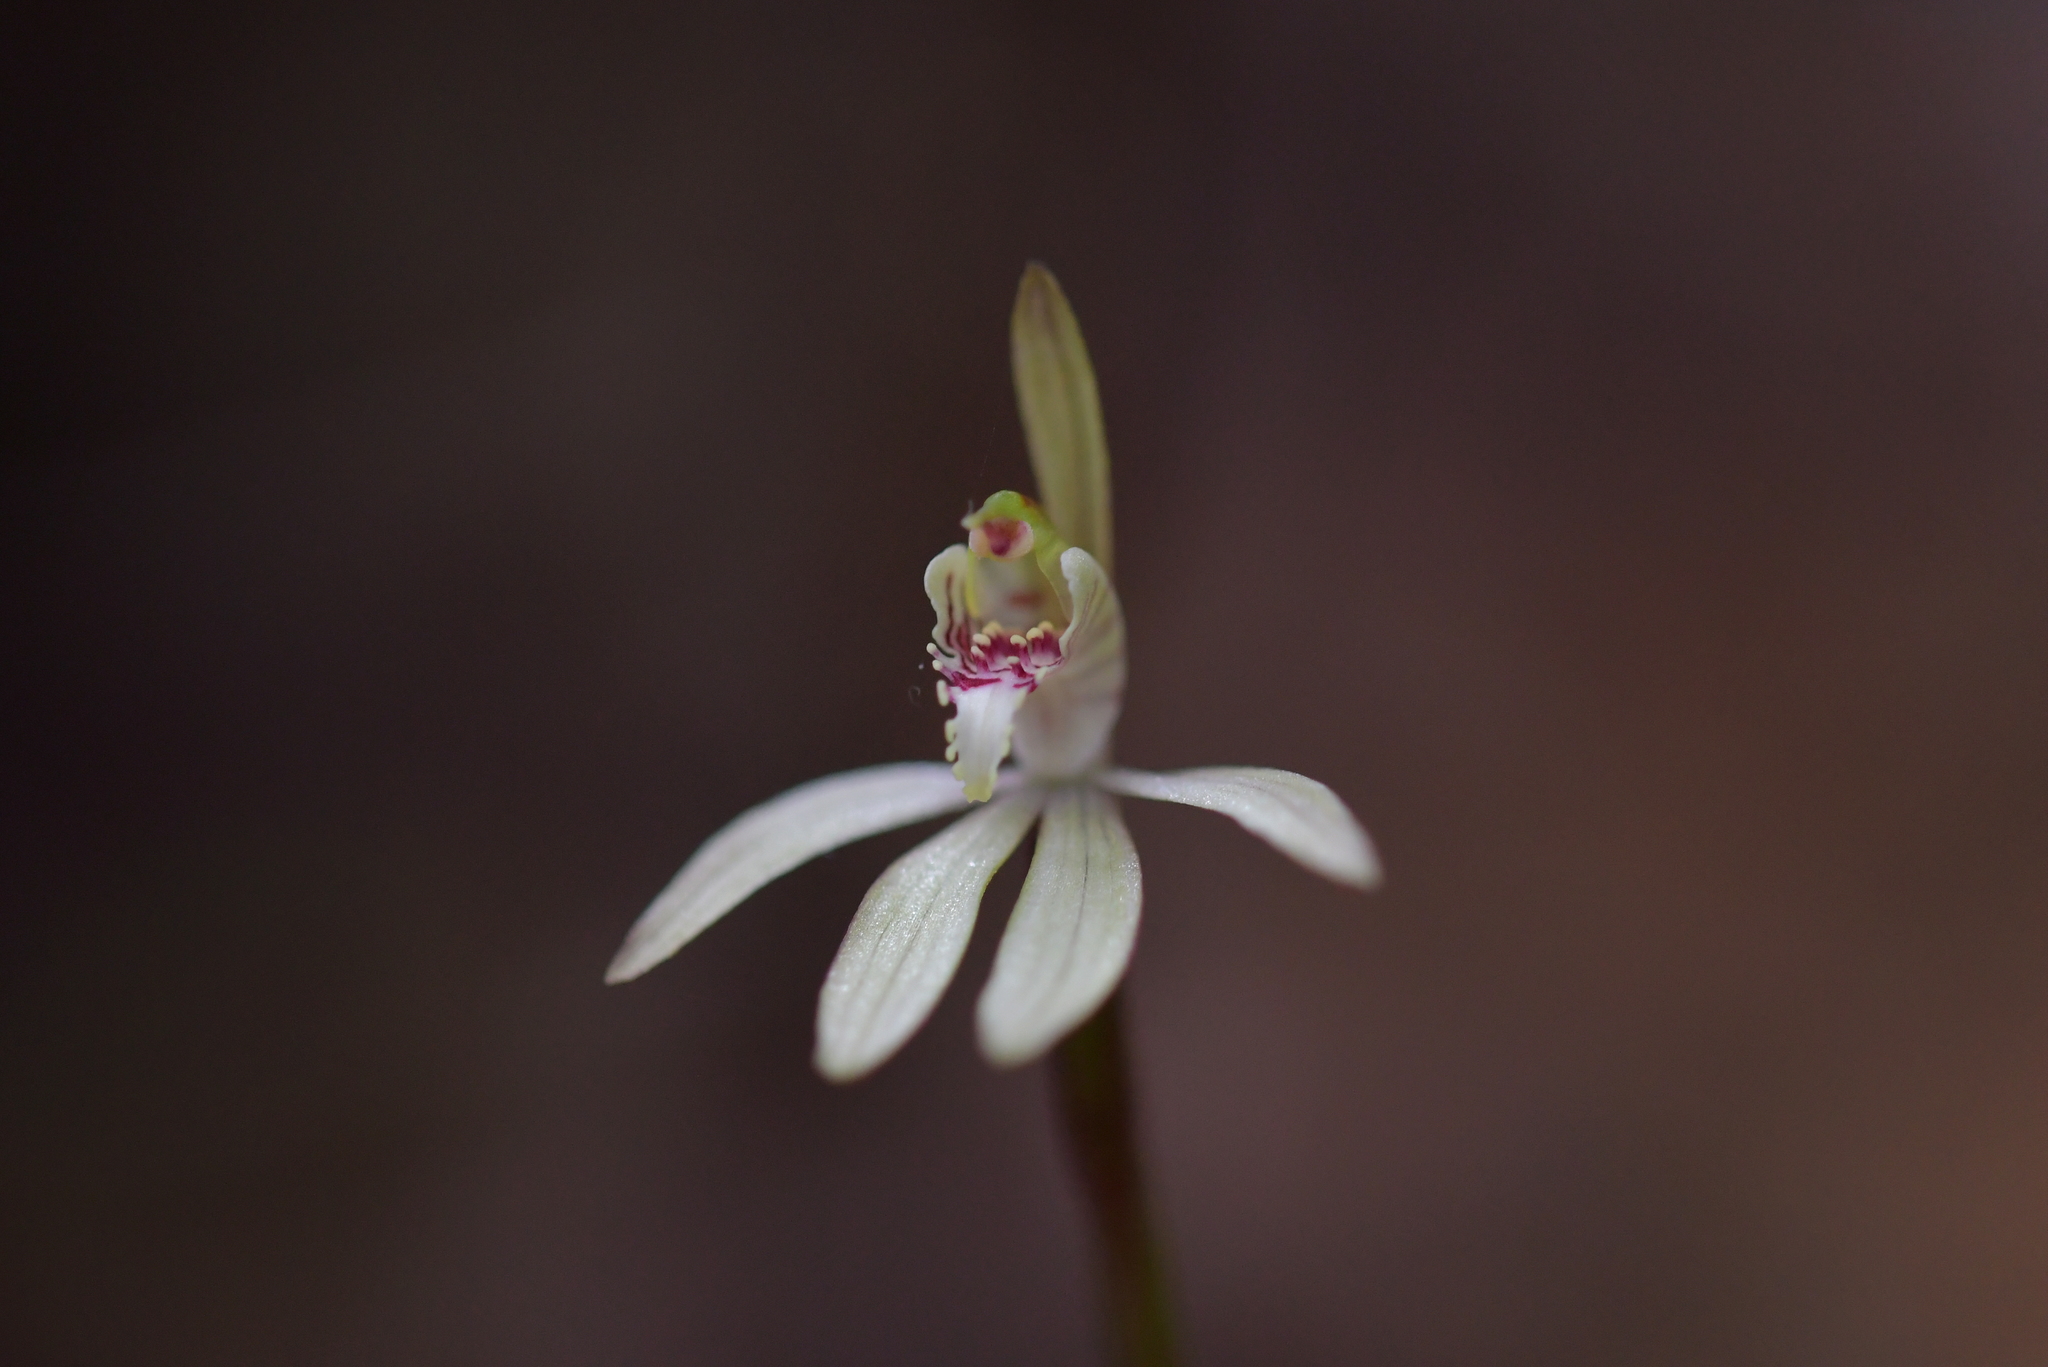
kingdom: Plantae
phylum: Tracheophyta
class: Liliopsida
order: Asparagales
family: Orchidaceae
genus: Caladenia
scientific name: Caladenia chlorostyla
